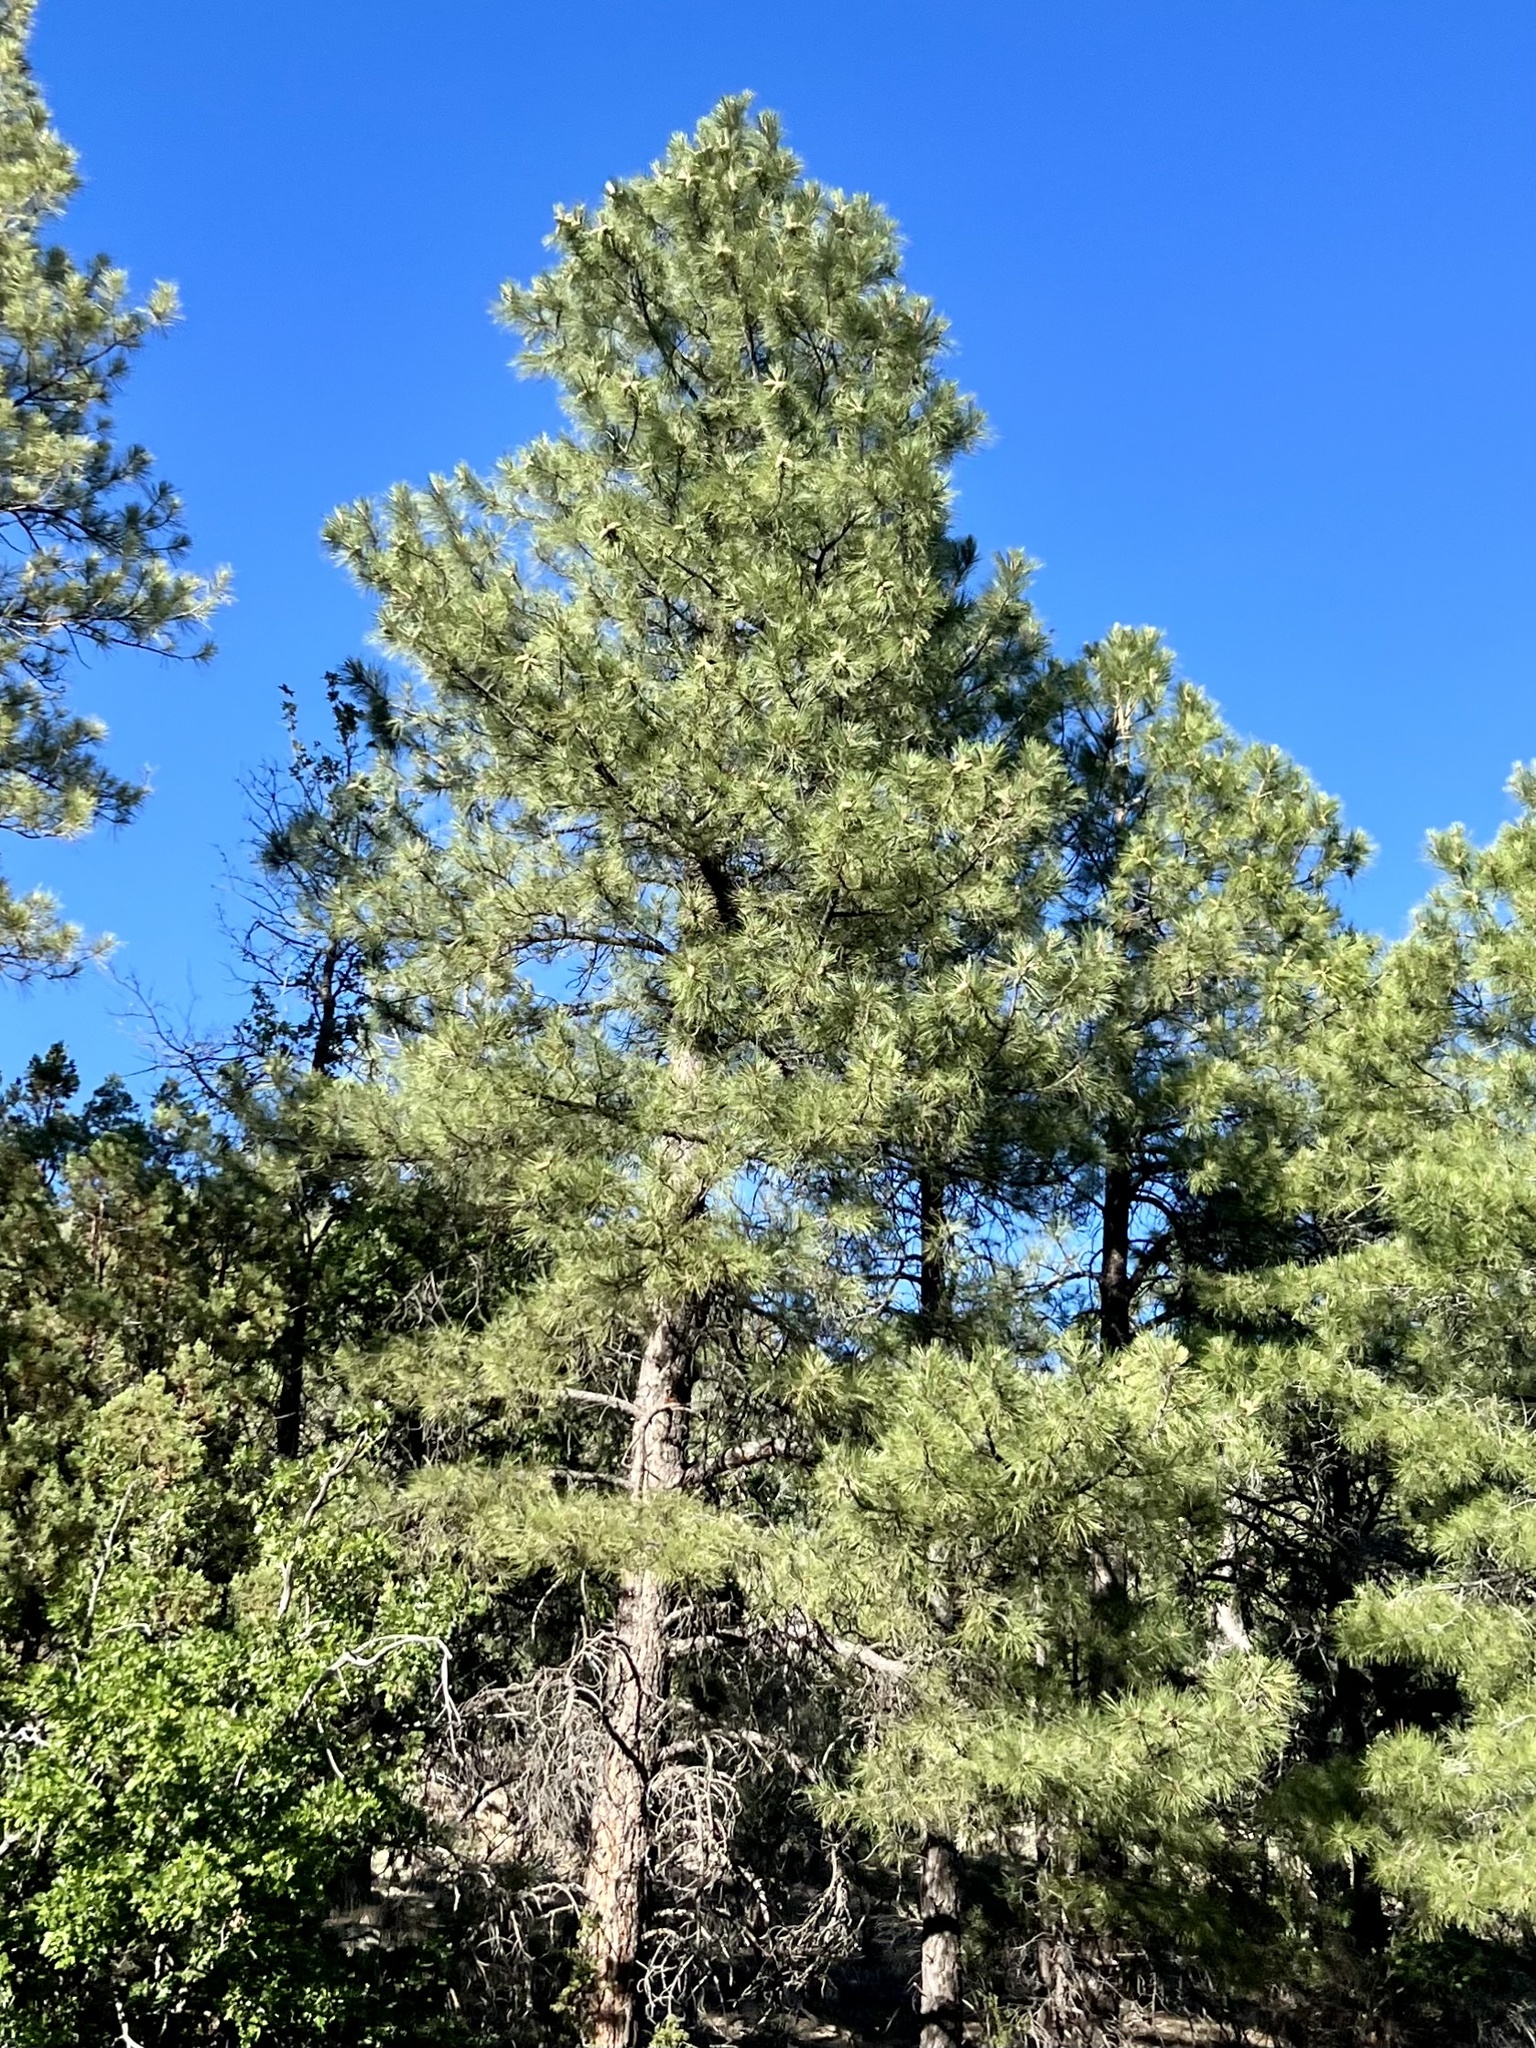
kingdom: Plantae
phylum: Tracheophyta
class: Pinopsida
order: Pinales
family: Pinaceae
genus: Pinus
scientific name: Pinus ponderosa
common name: Western yellow-pine
